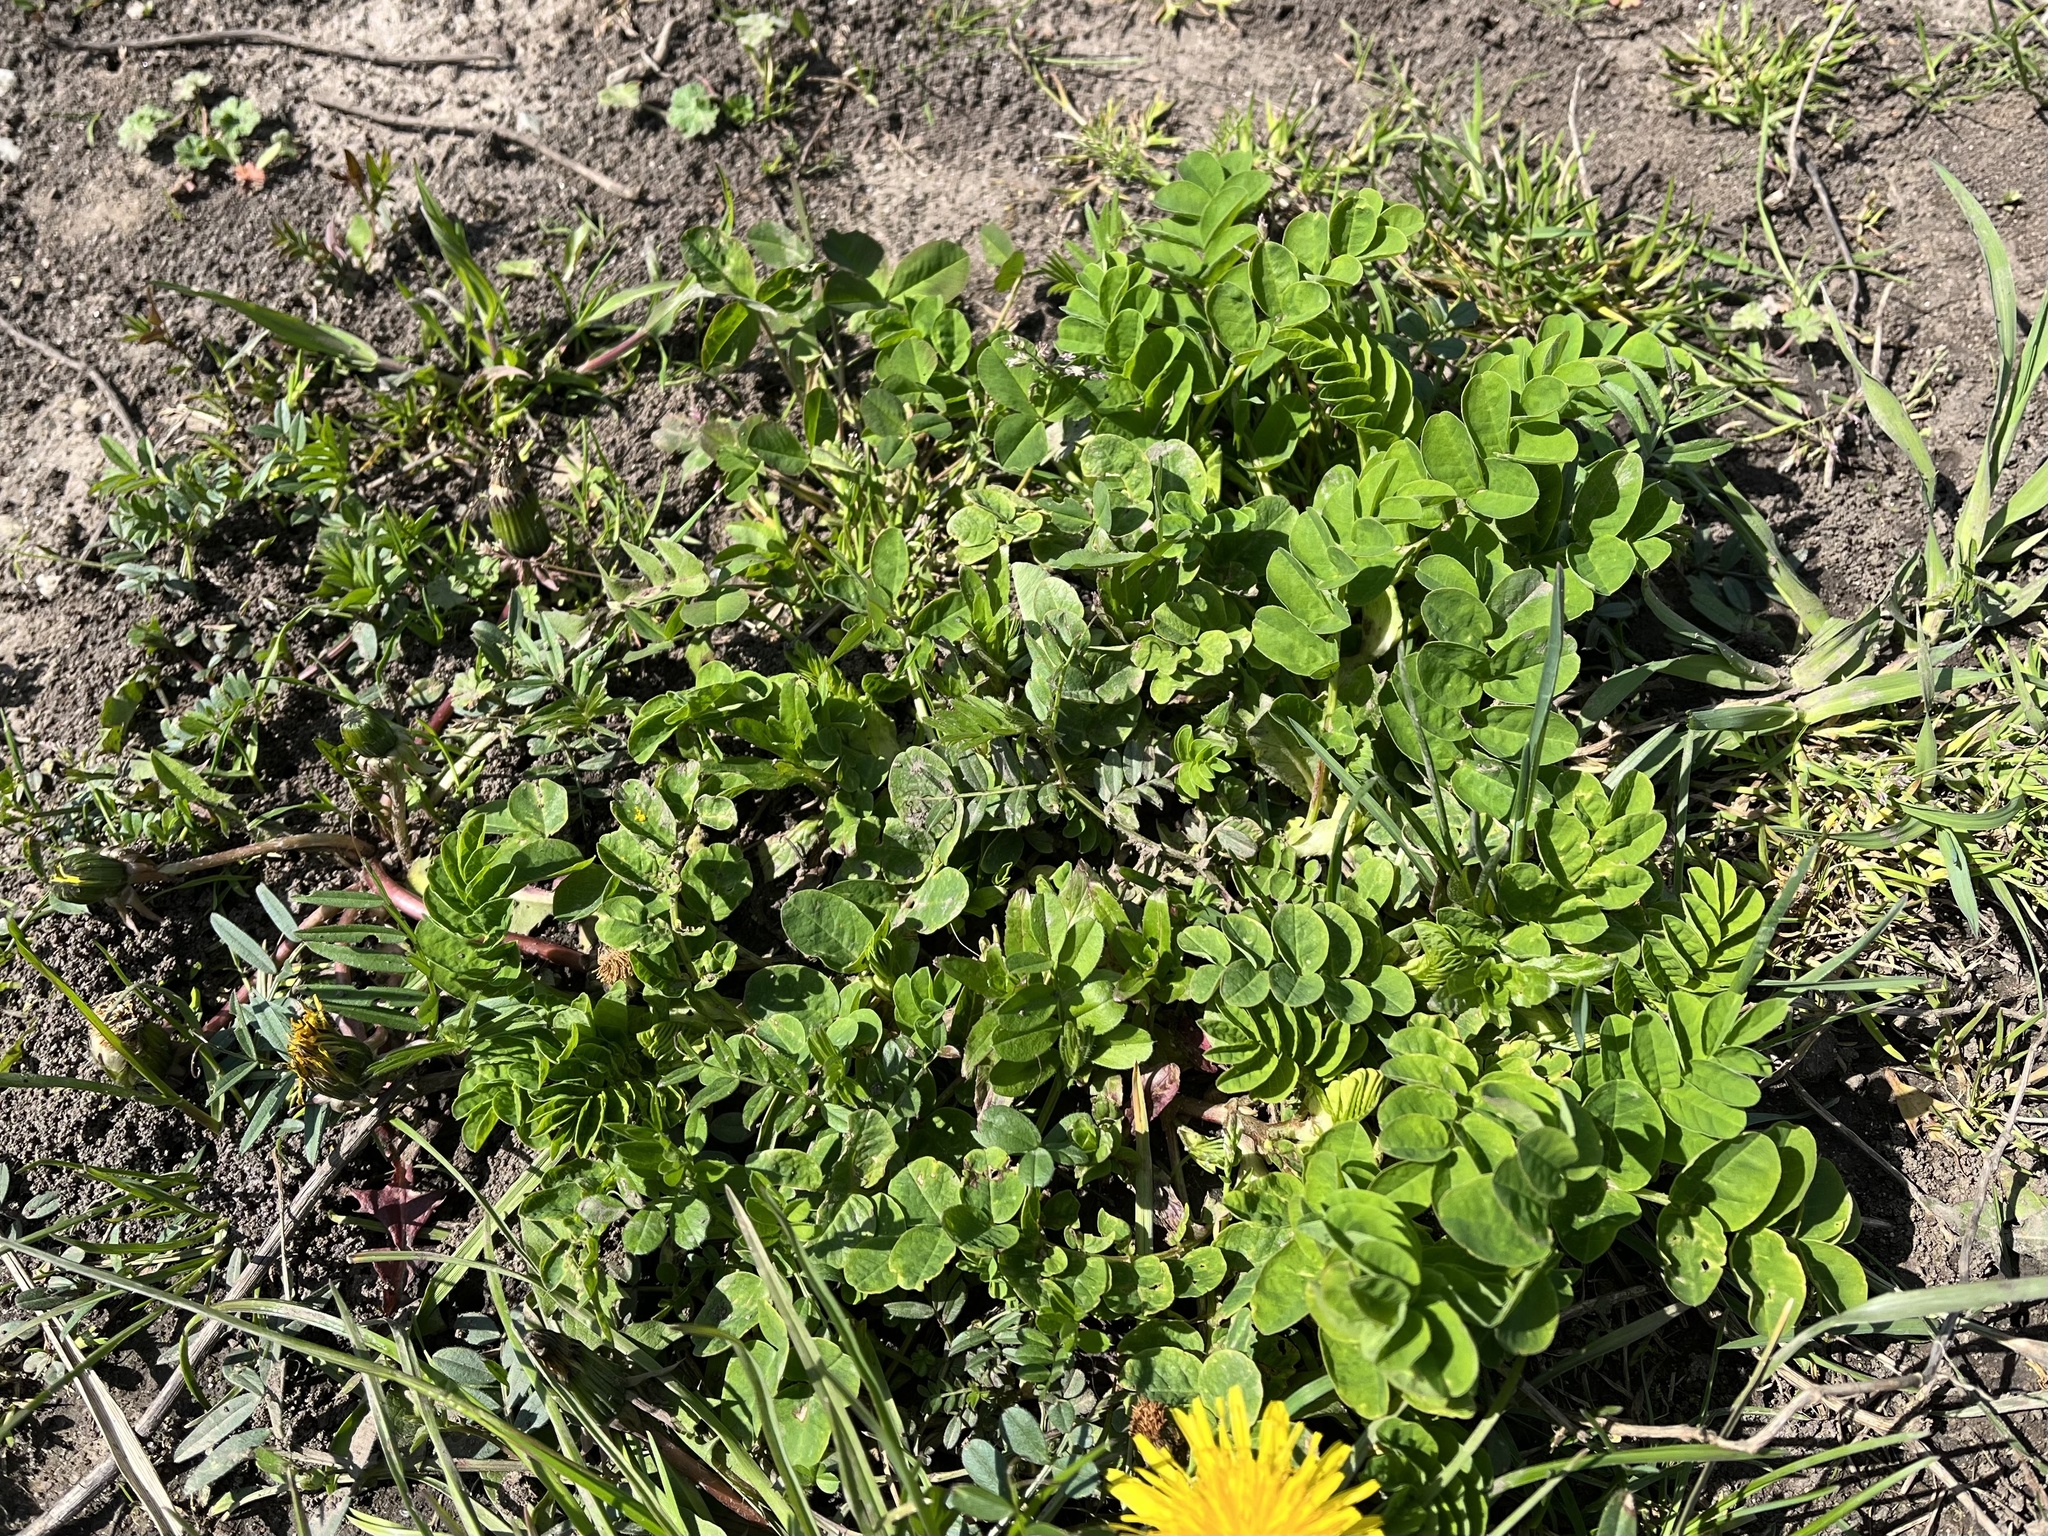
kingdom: Plantae
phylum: Tracheophyta
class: Magnoliopsida
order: Fabales
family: Fabaceae
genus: Astragalus
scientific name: Astragalus glycyphyllos
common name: Wild liquorice
